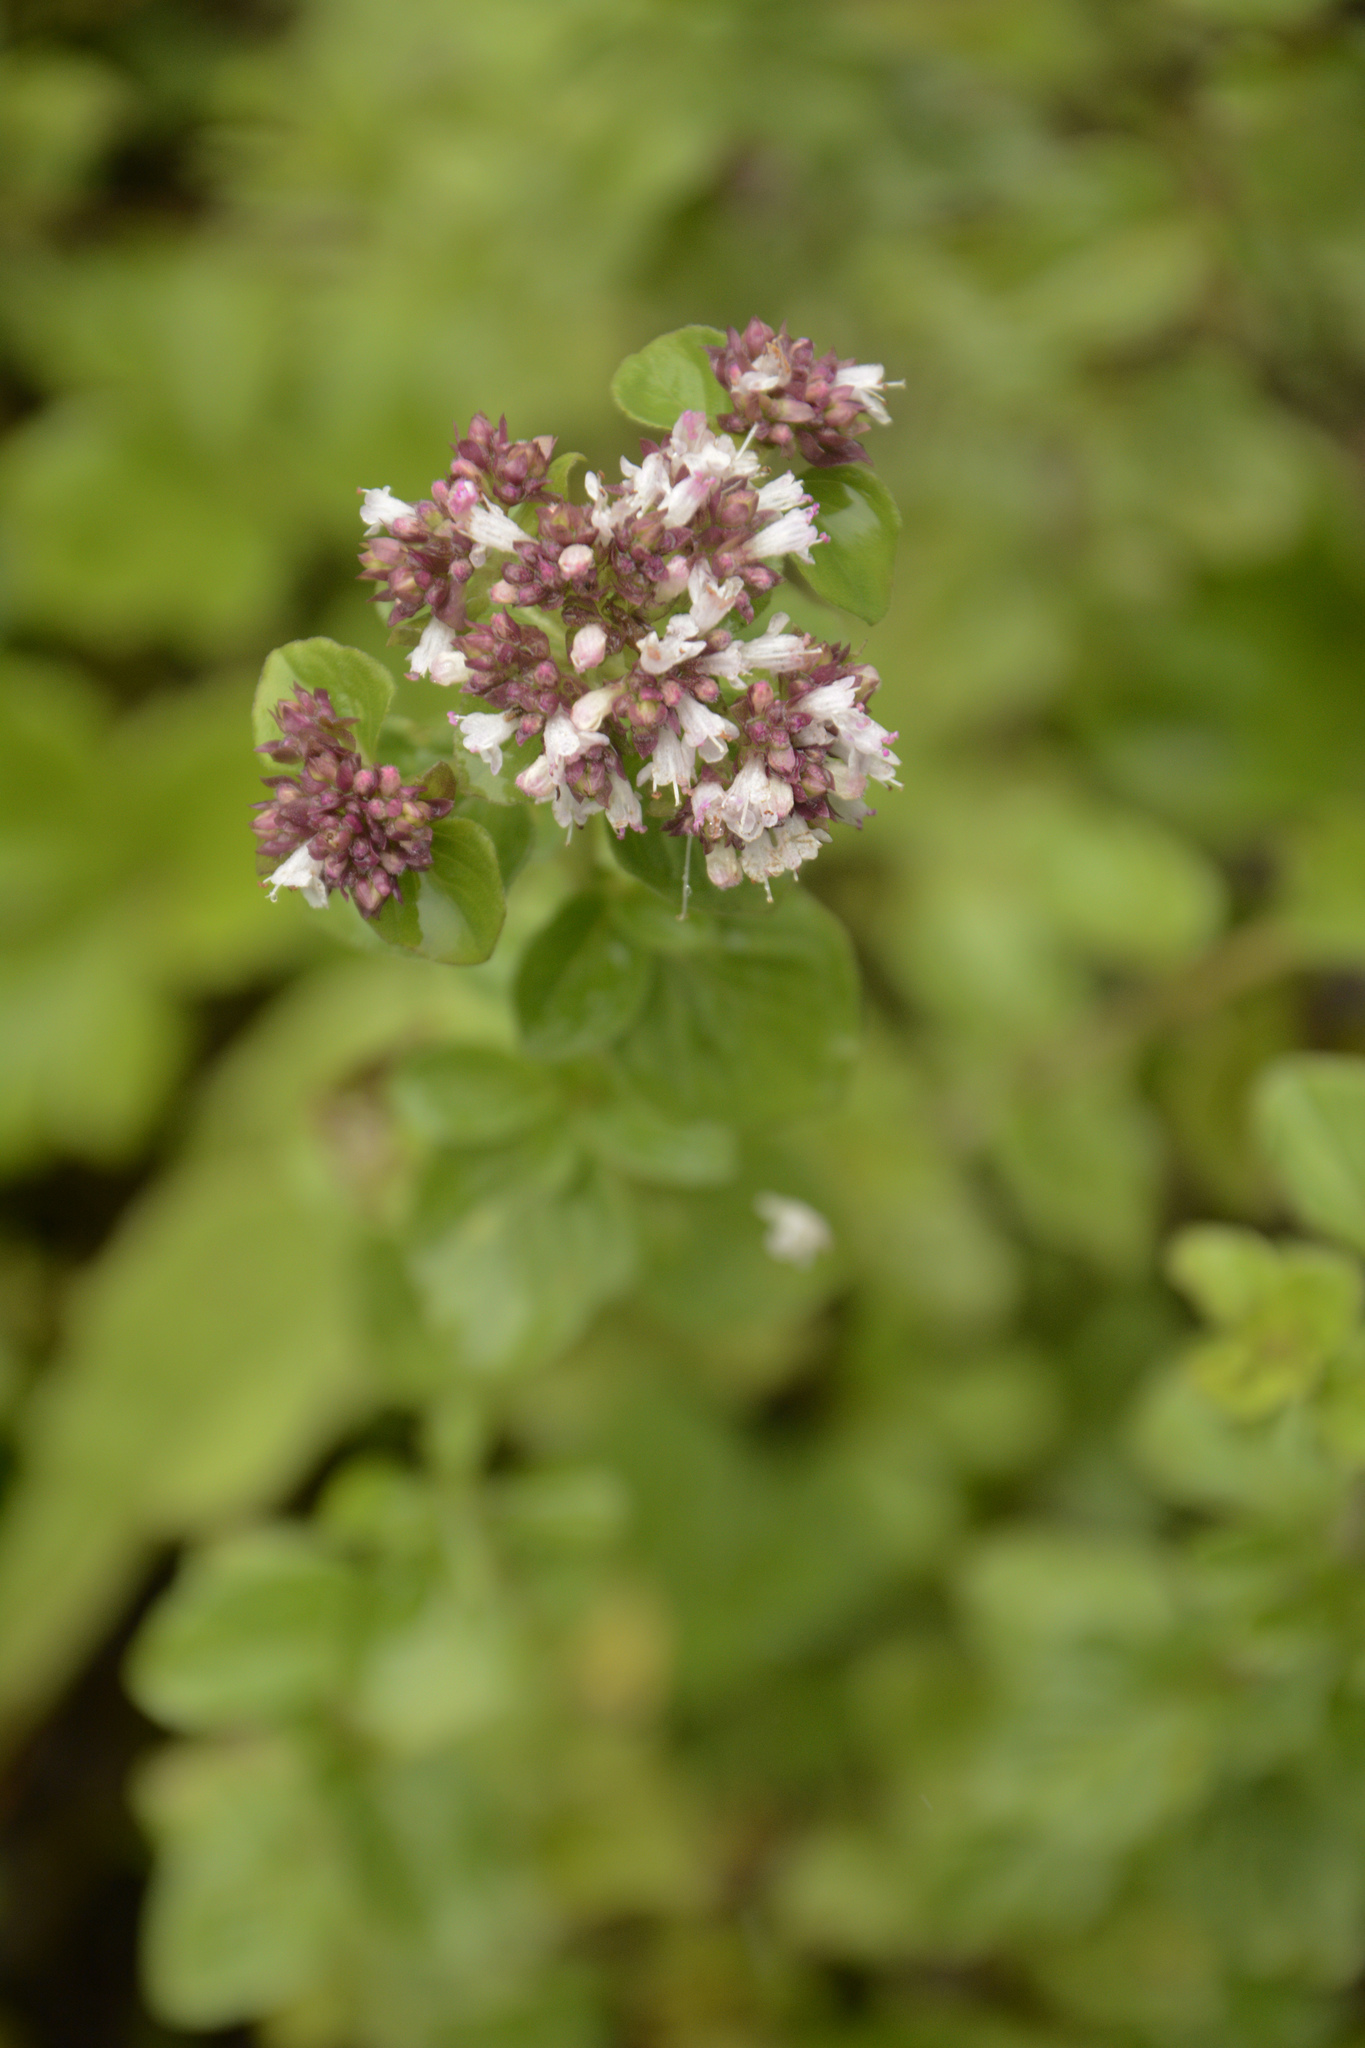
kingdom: Plantae
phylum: Tracheophyta
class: Magnoliopsida
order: Lamiales
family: Lamiaceae
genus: Origanum
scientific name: Origanum vulgare
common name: Wild marjoram
